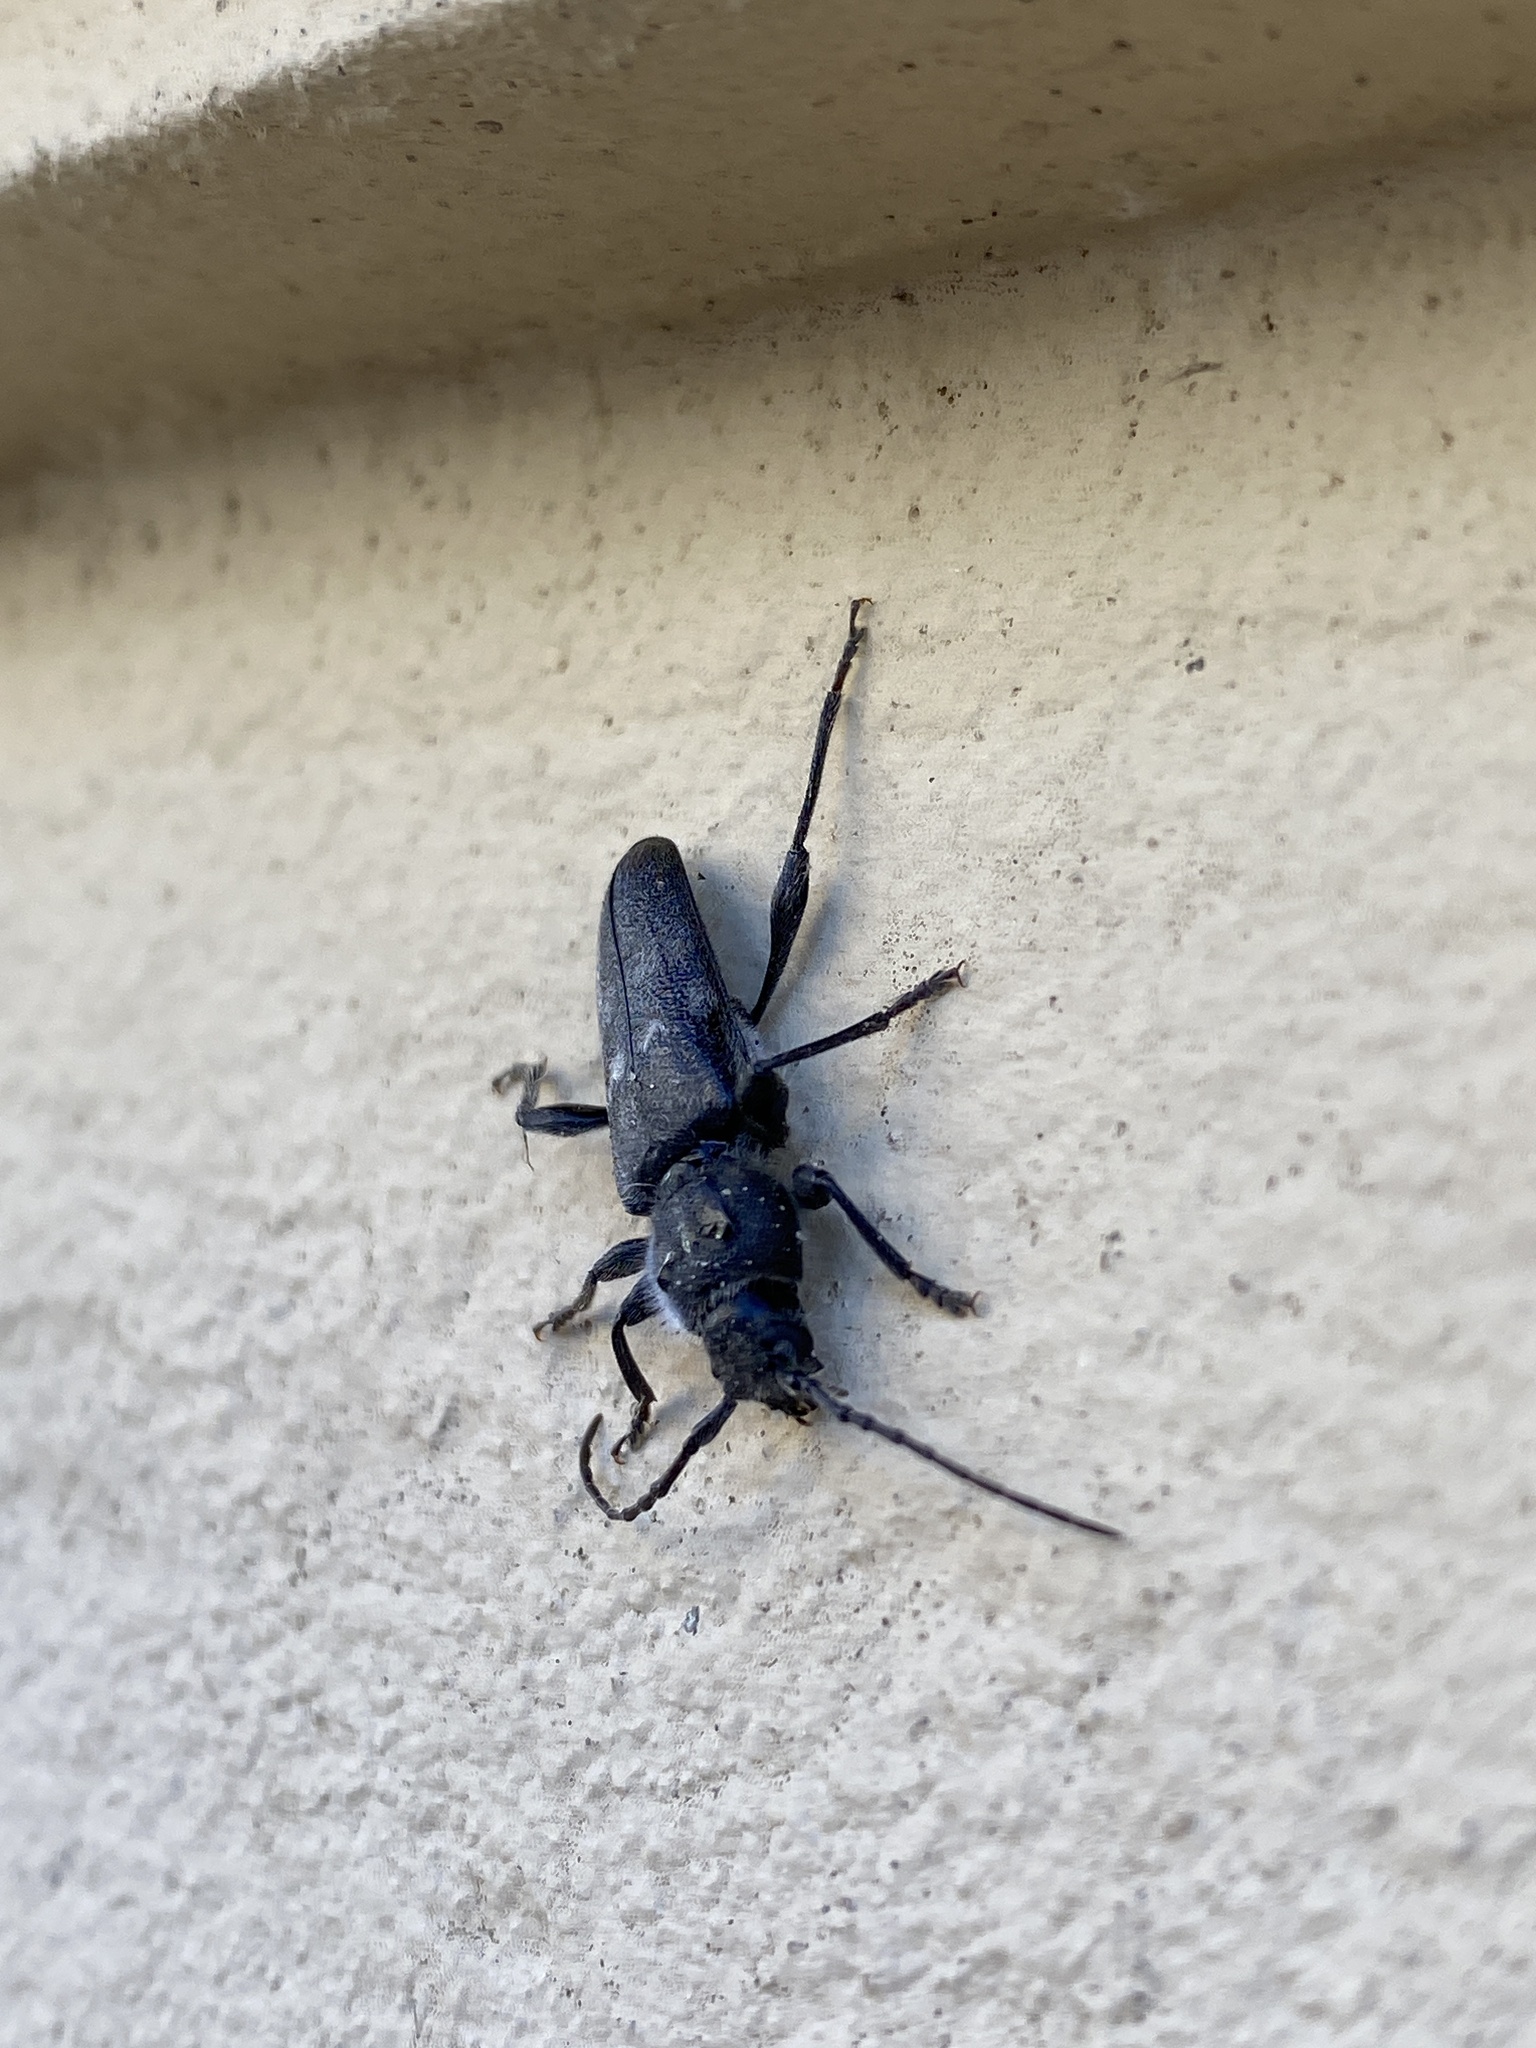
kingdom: Animalia
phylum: Arthropoda
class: Insecta
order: Coleoptera
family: Cerambycidae
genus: Hylotrupes
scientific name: Hylotrupes bajulus
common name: Old house borer
